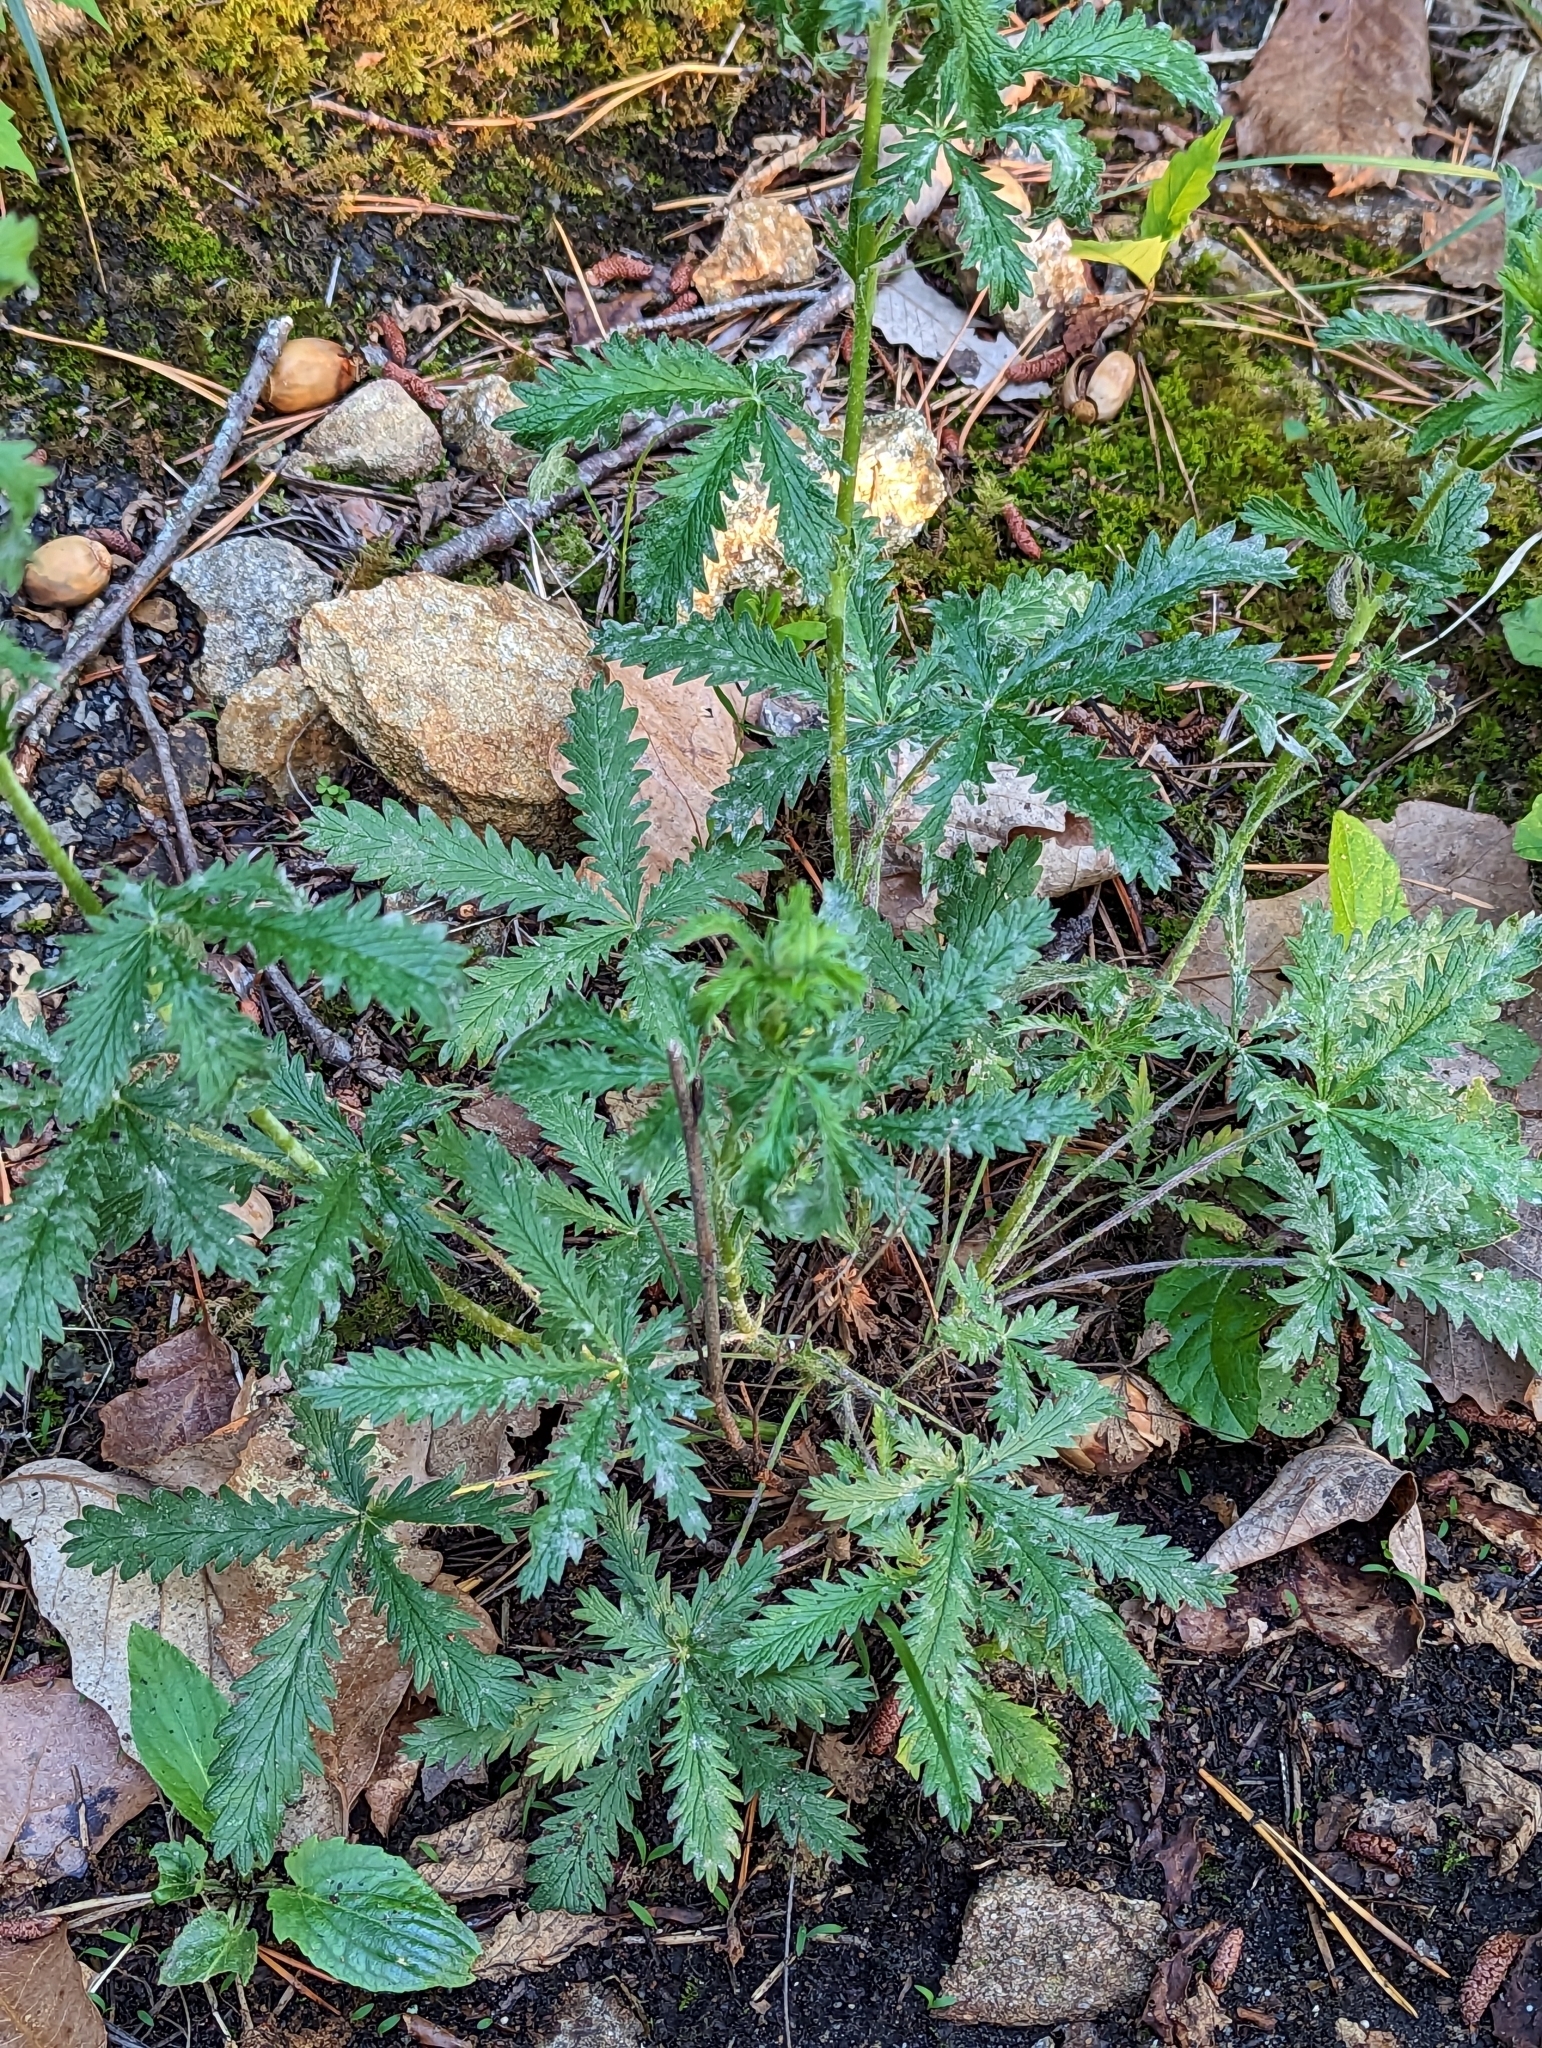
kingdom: Plantae
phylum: Tracheophyta
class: Magnoliopsida
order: Rosales
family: Rosaceae
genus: Potentilla
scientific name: Potentilla recta
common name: Sulphur cinquefoil
